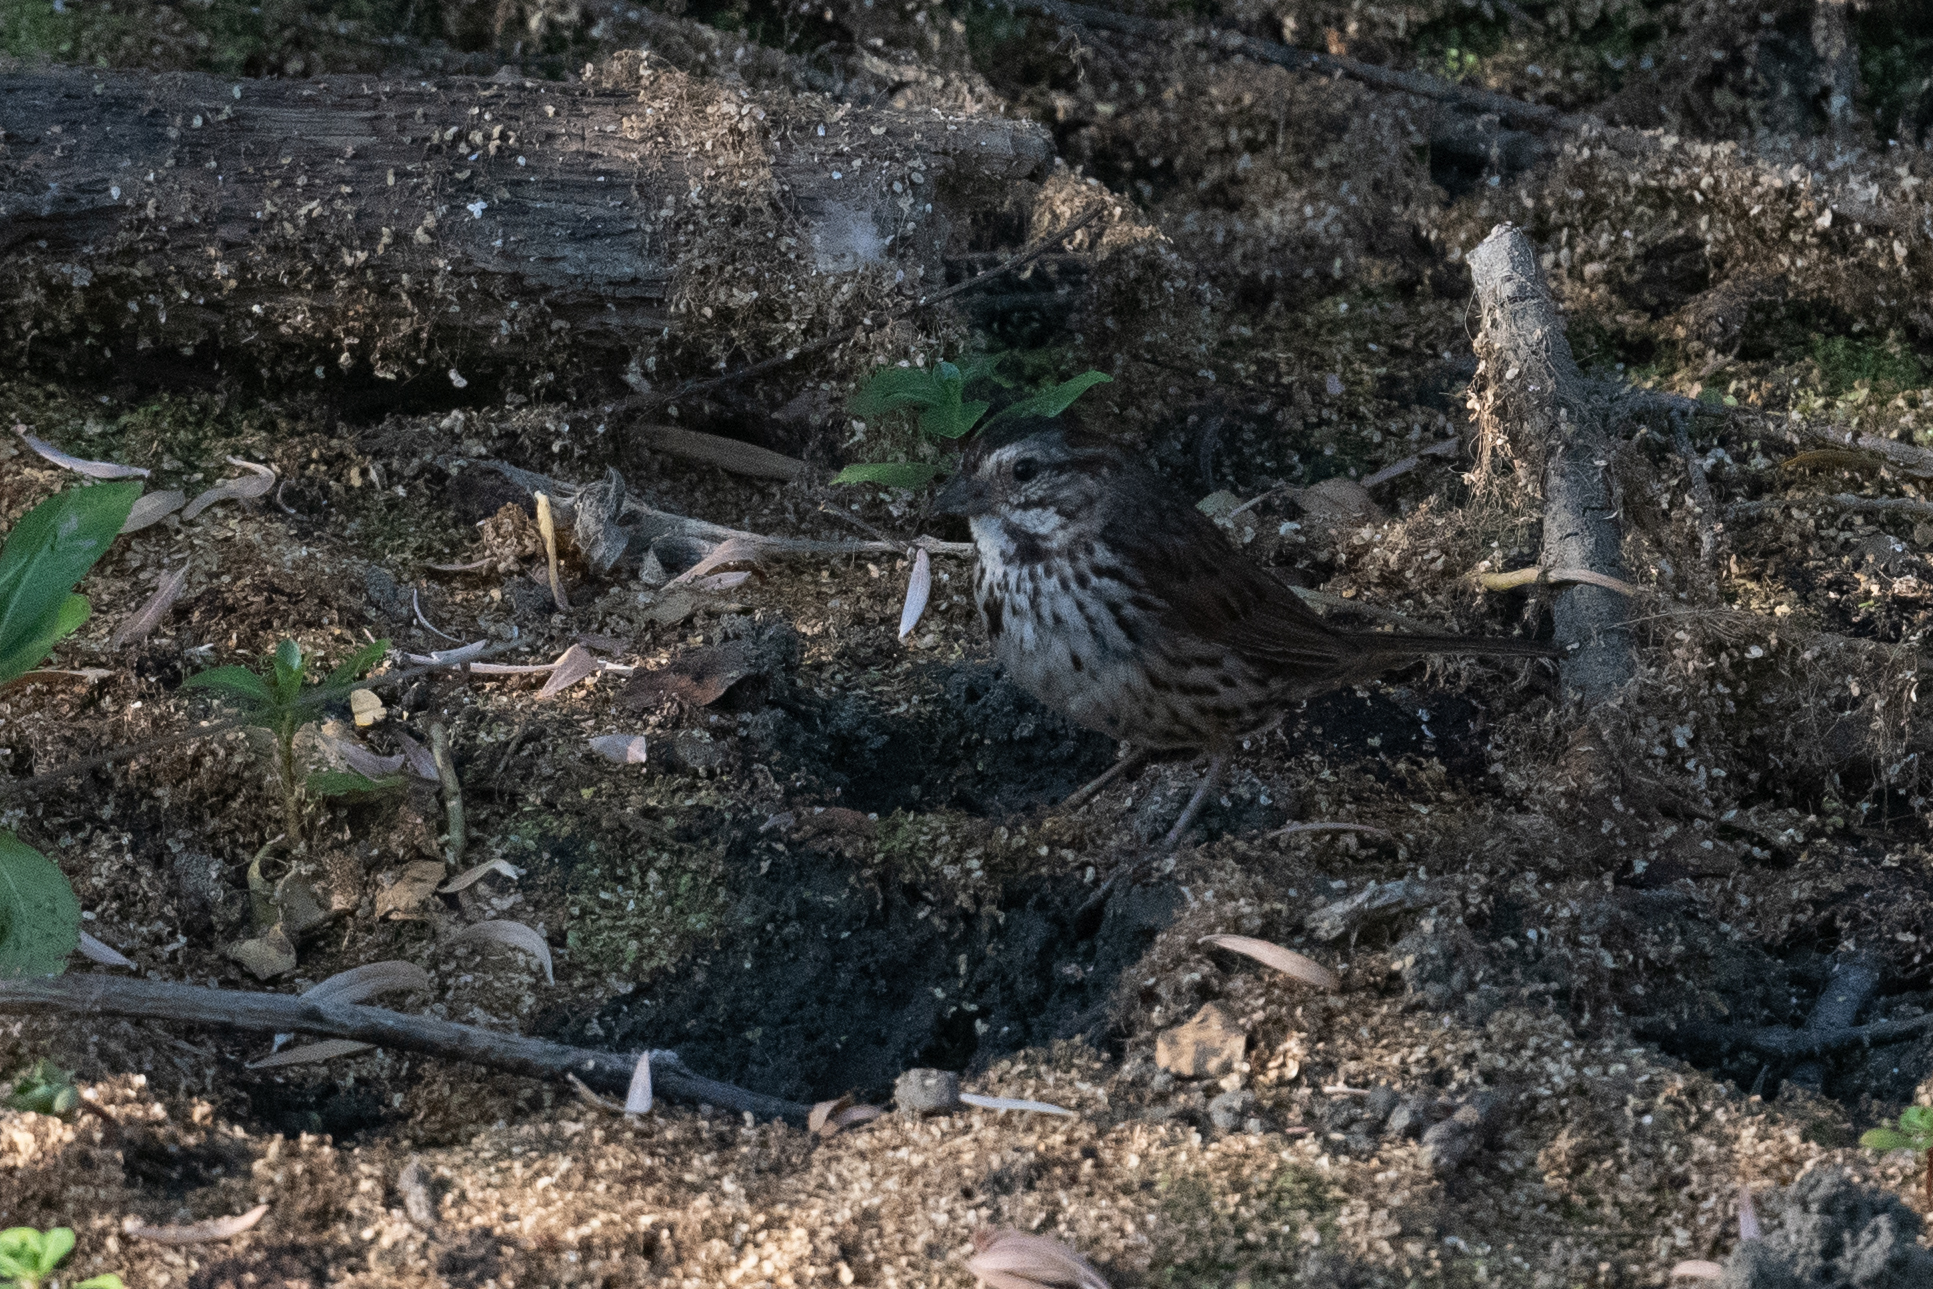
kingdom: Animalia
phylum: Chordata
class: Aves
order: Passeriformes
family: Passerellidae
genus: Melospiza
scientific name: Melospiza melodia
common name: Song sparrow
